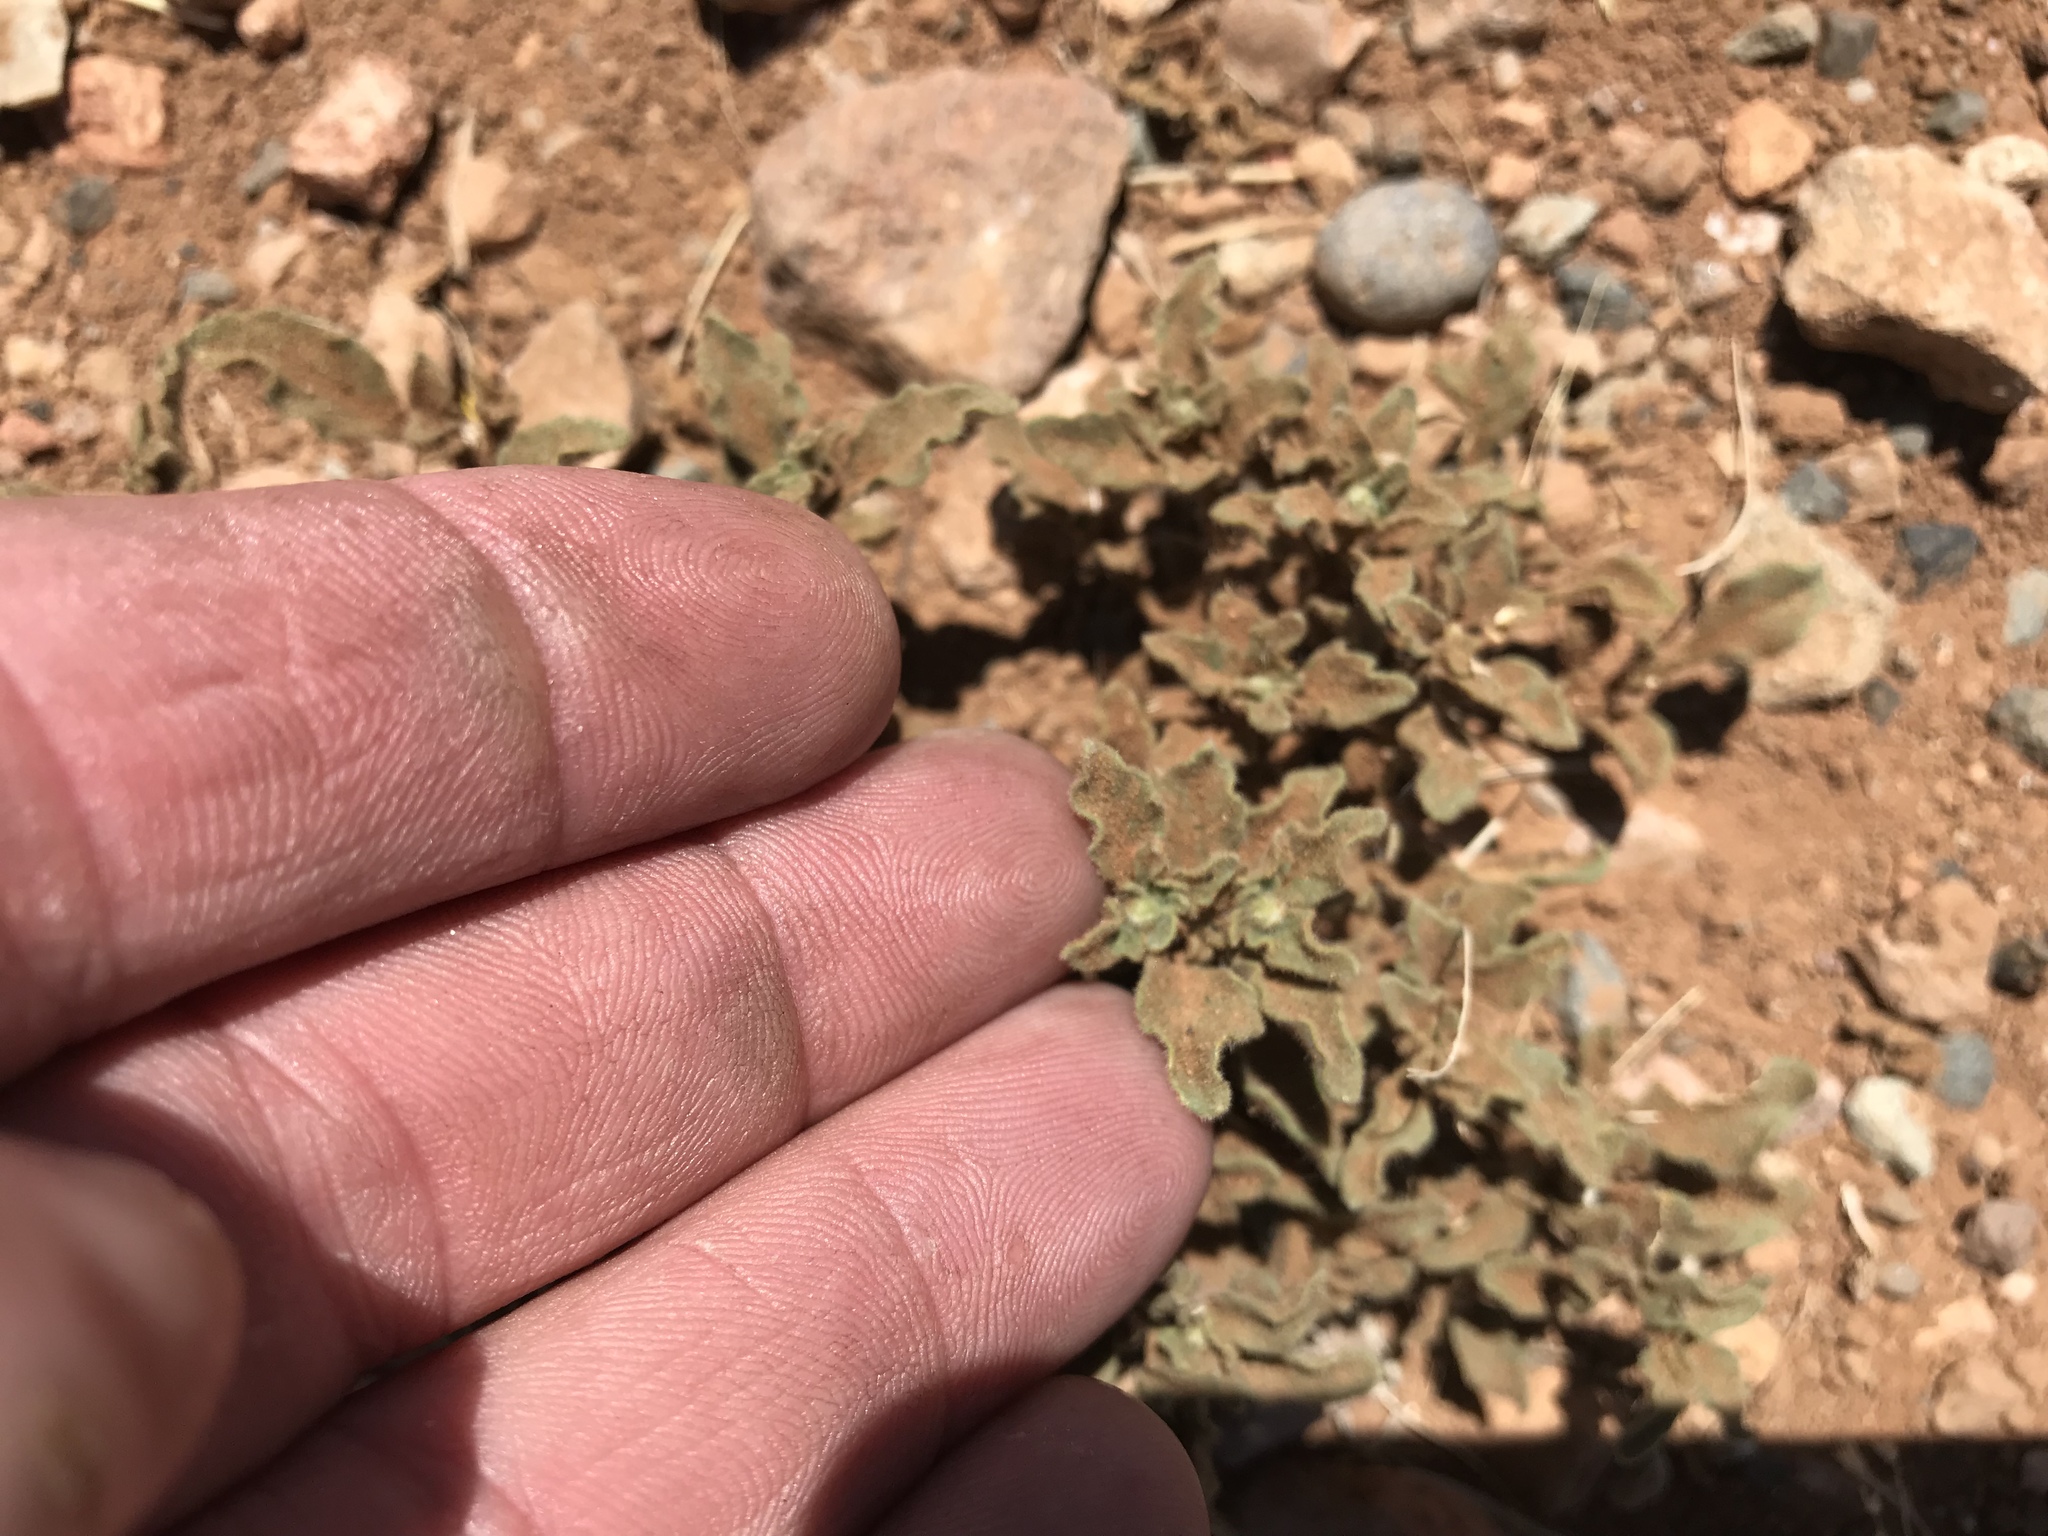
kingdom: Plantae
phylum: Tracheophyta
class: Magnoliopsida
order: Solanales
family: Solanaceae
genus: Chamaesaracha
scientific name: Chamaesaracha sordida
